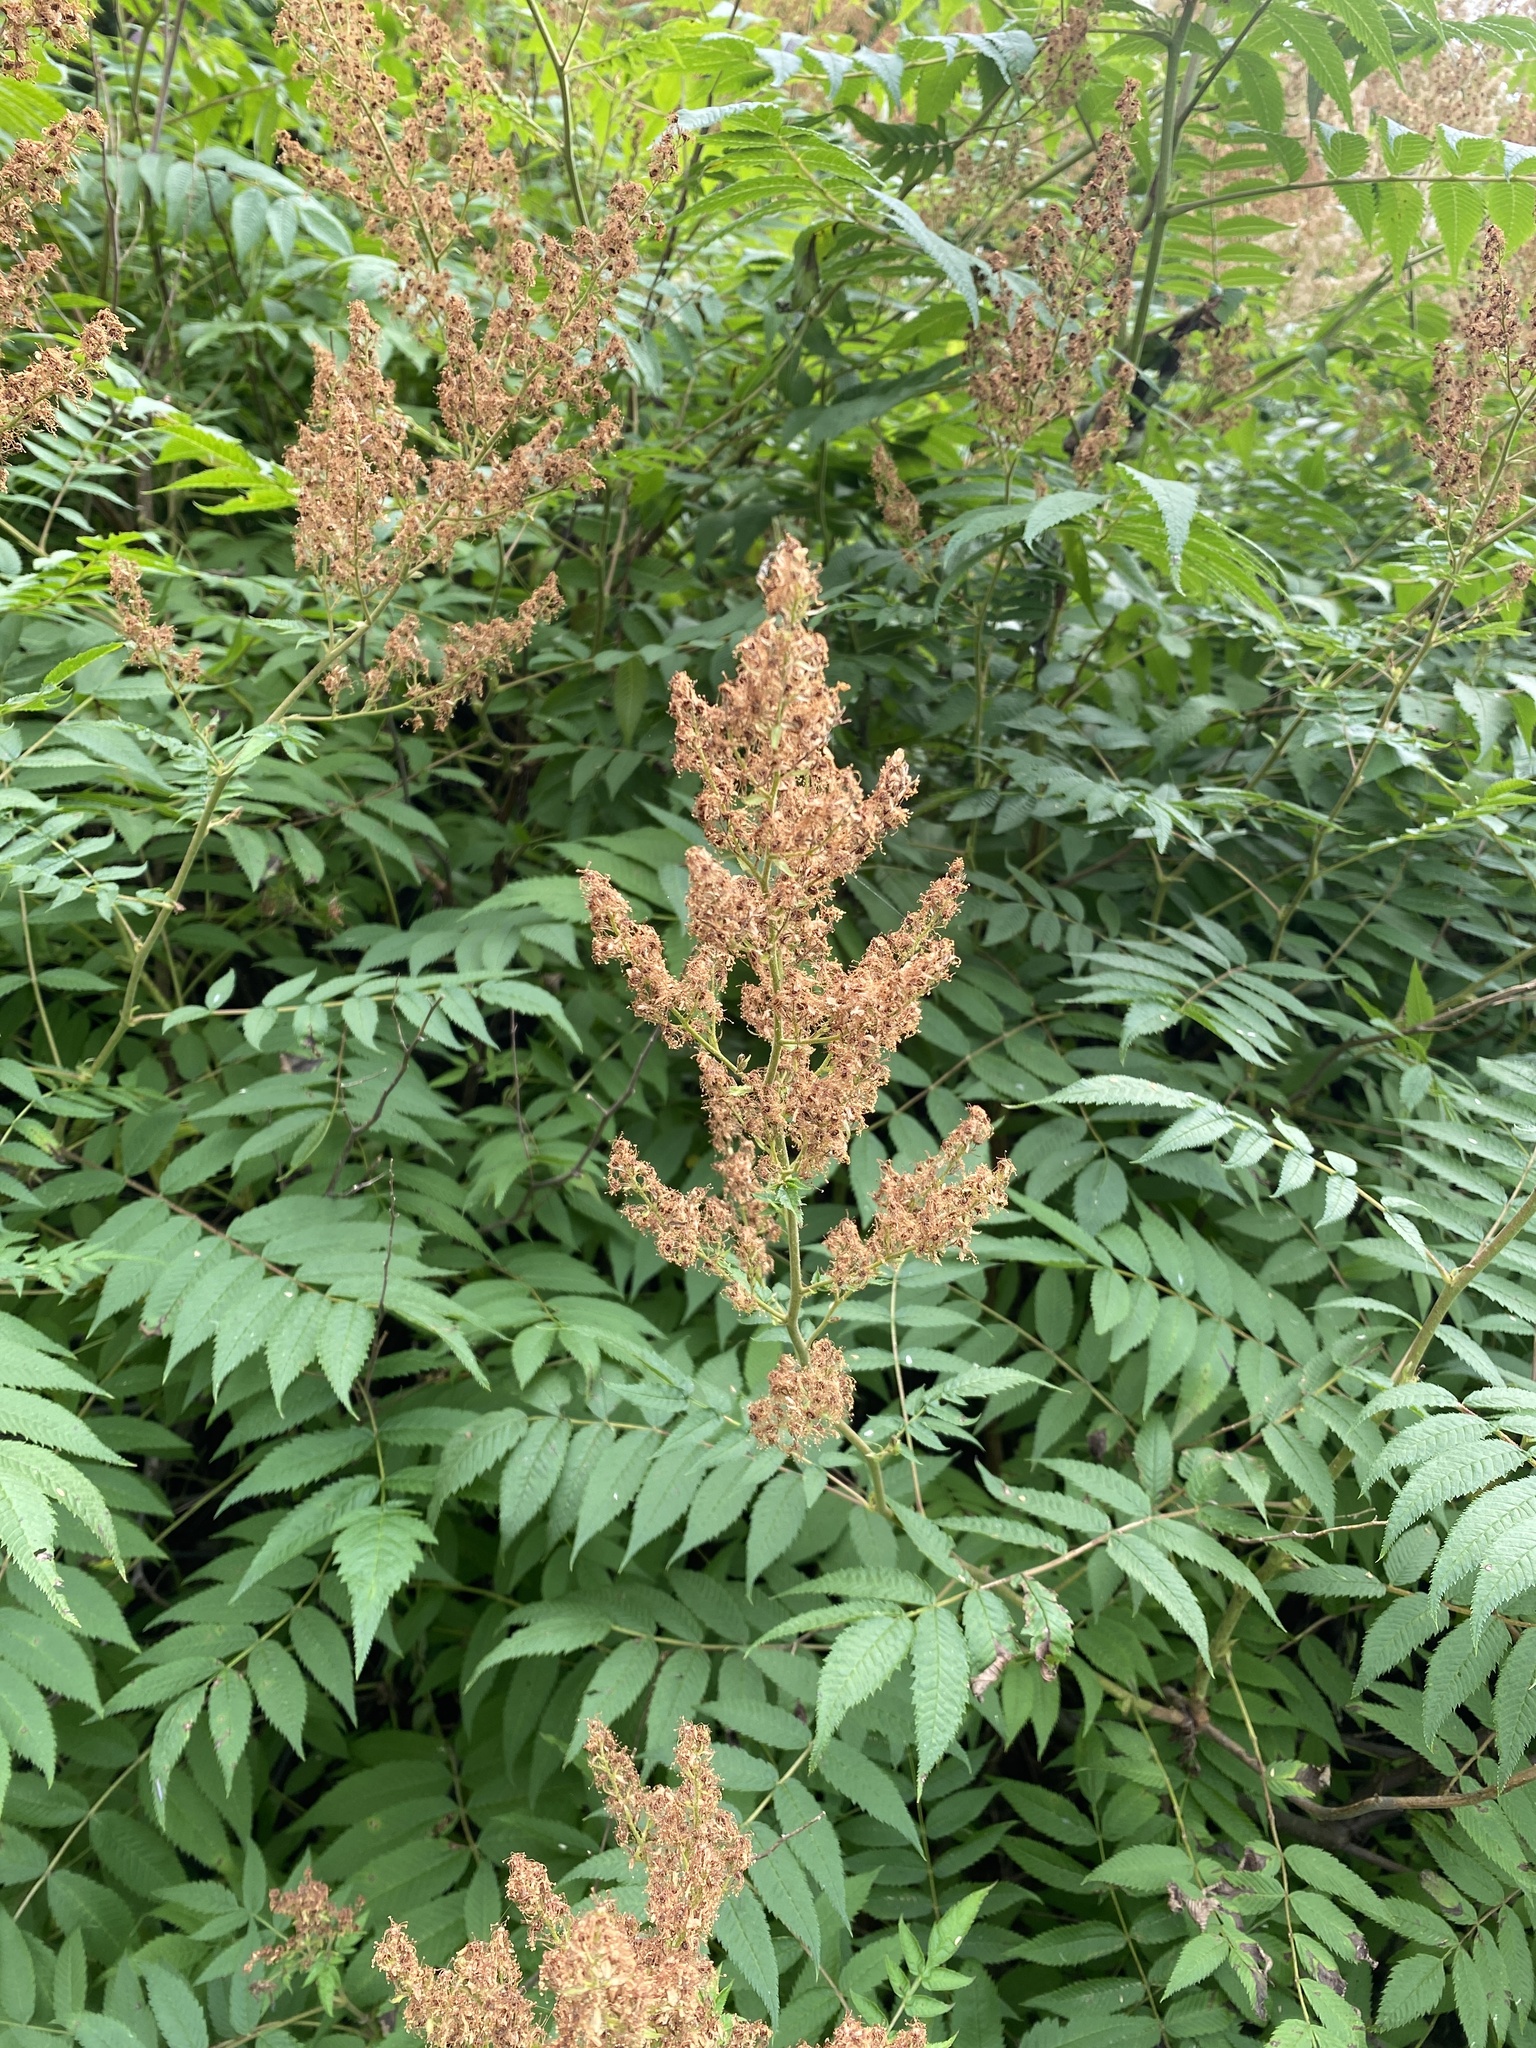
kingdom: Plantae
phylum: Tracheophyta
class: Magnoliopsida
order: Rosales
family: Rosaceae
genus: Sorbaria
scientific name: Sorbaria sorbifolia
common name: False spiraea
